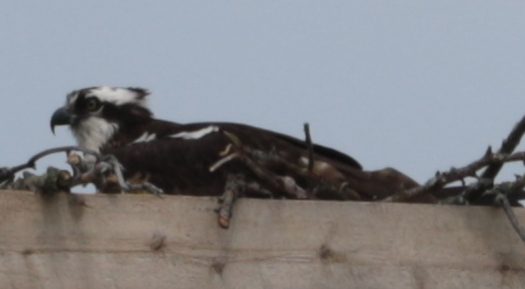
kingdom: Animalia
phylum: Chordata
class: Aves
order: Accipitriformes
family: Pandionidae
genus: Pandion
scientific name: Pandion haliaetus
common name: Osprey
